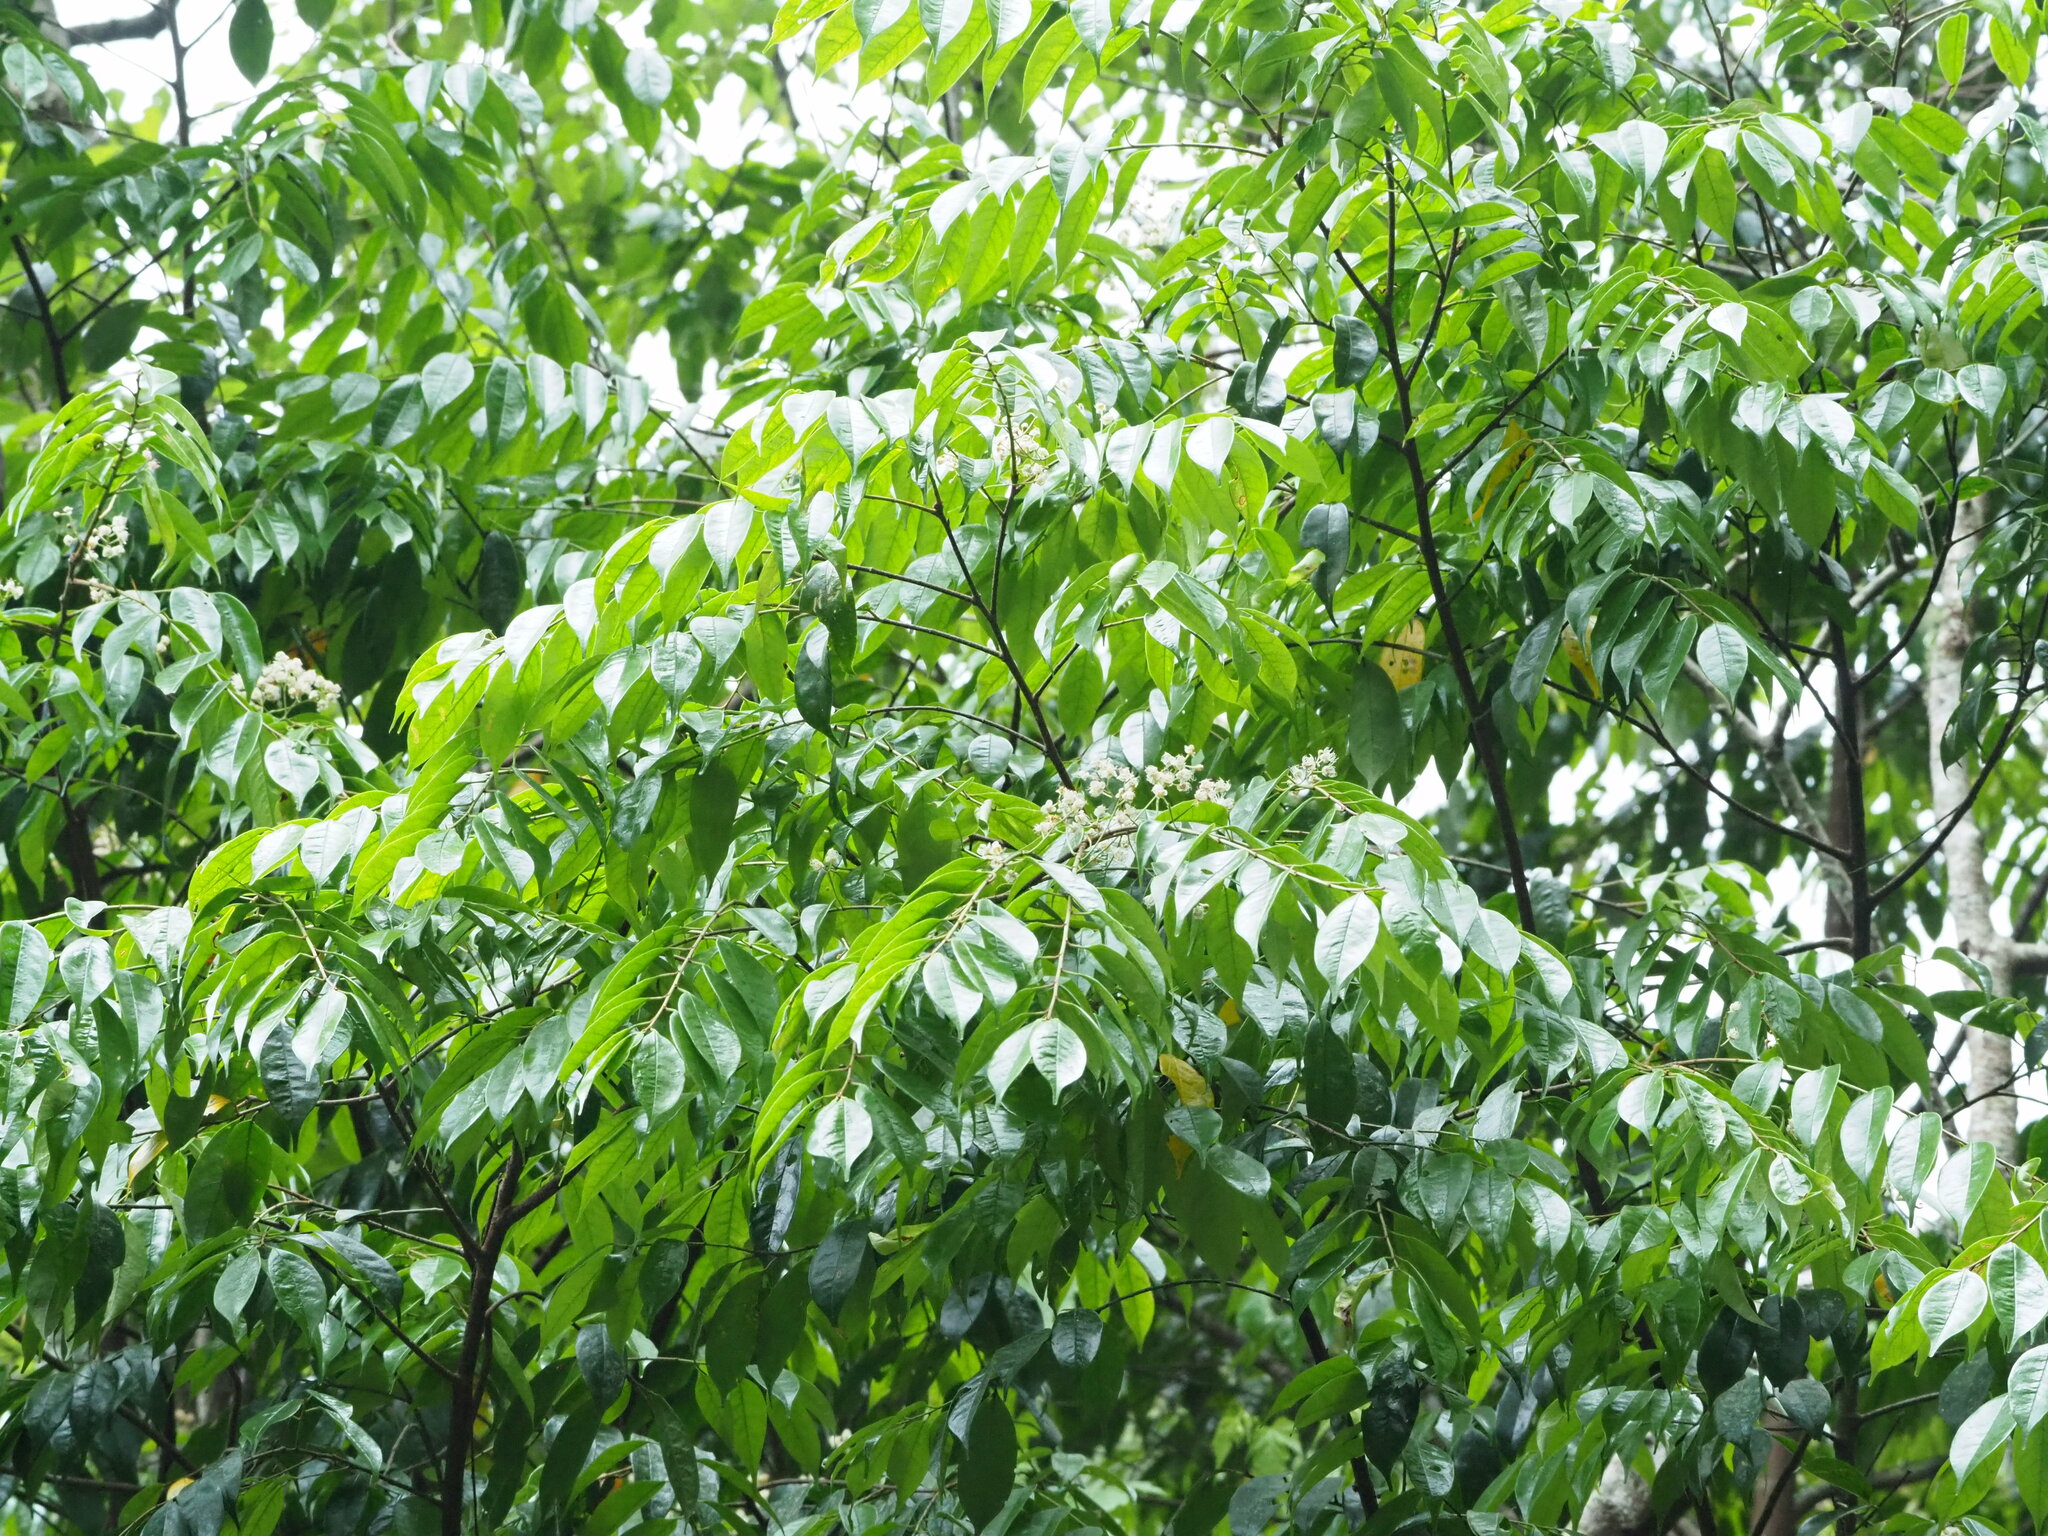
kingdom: Plantae
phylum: Tracheophyta
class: Magnoliopsida
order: Rosales
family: Rosaceae
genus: Prunus
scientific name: Prunus phaeosticta
